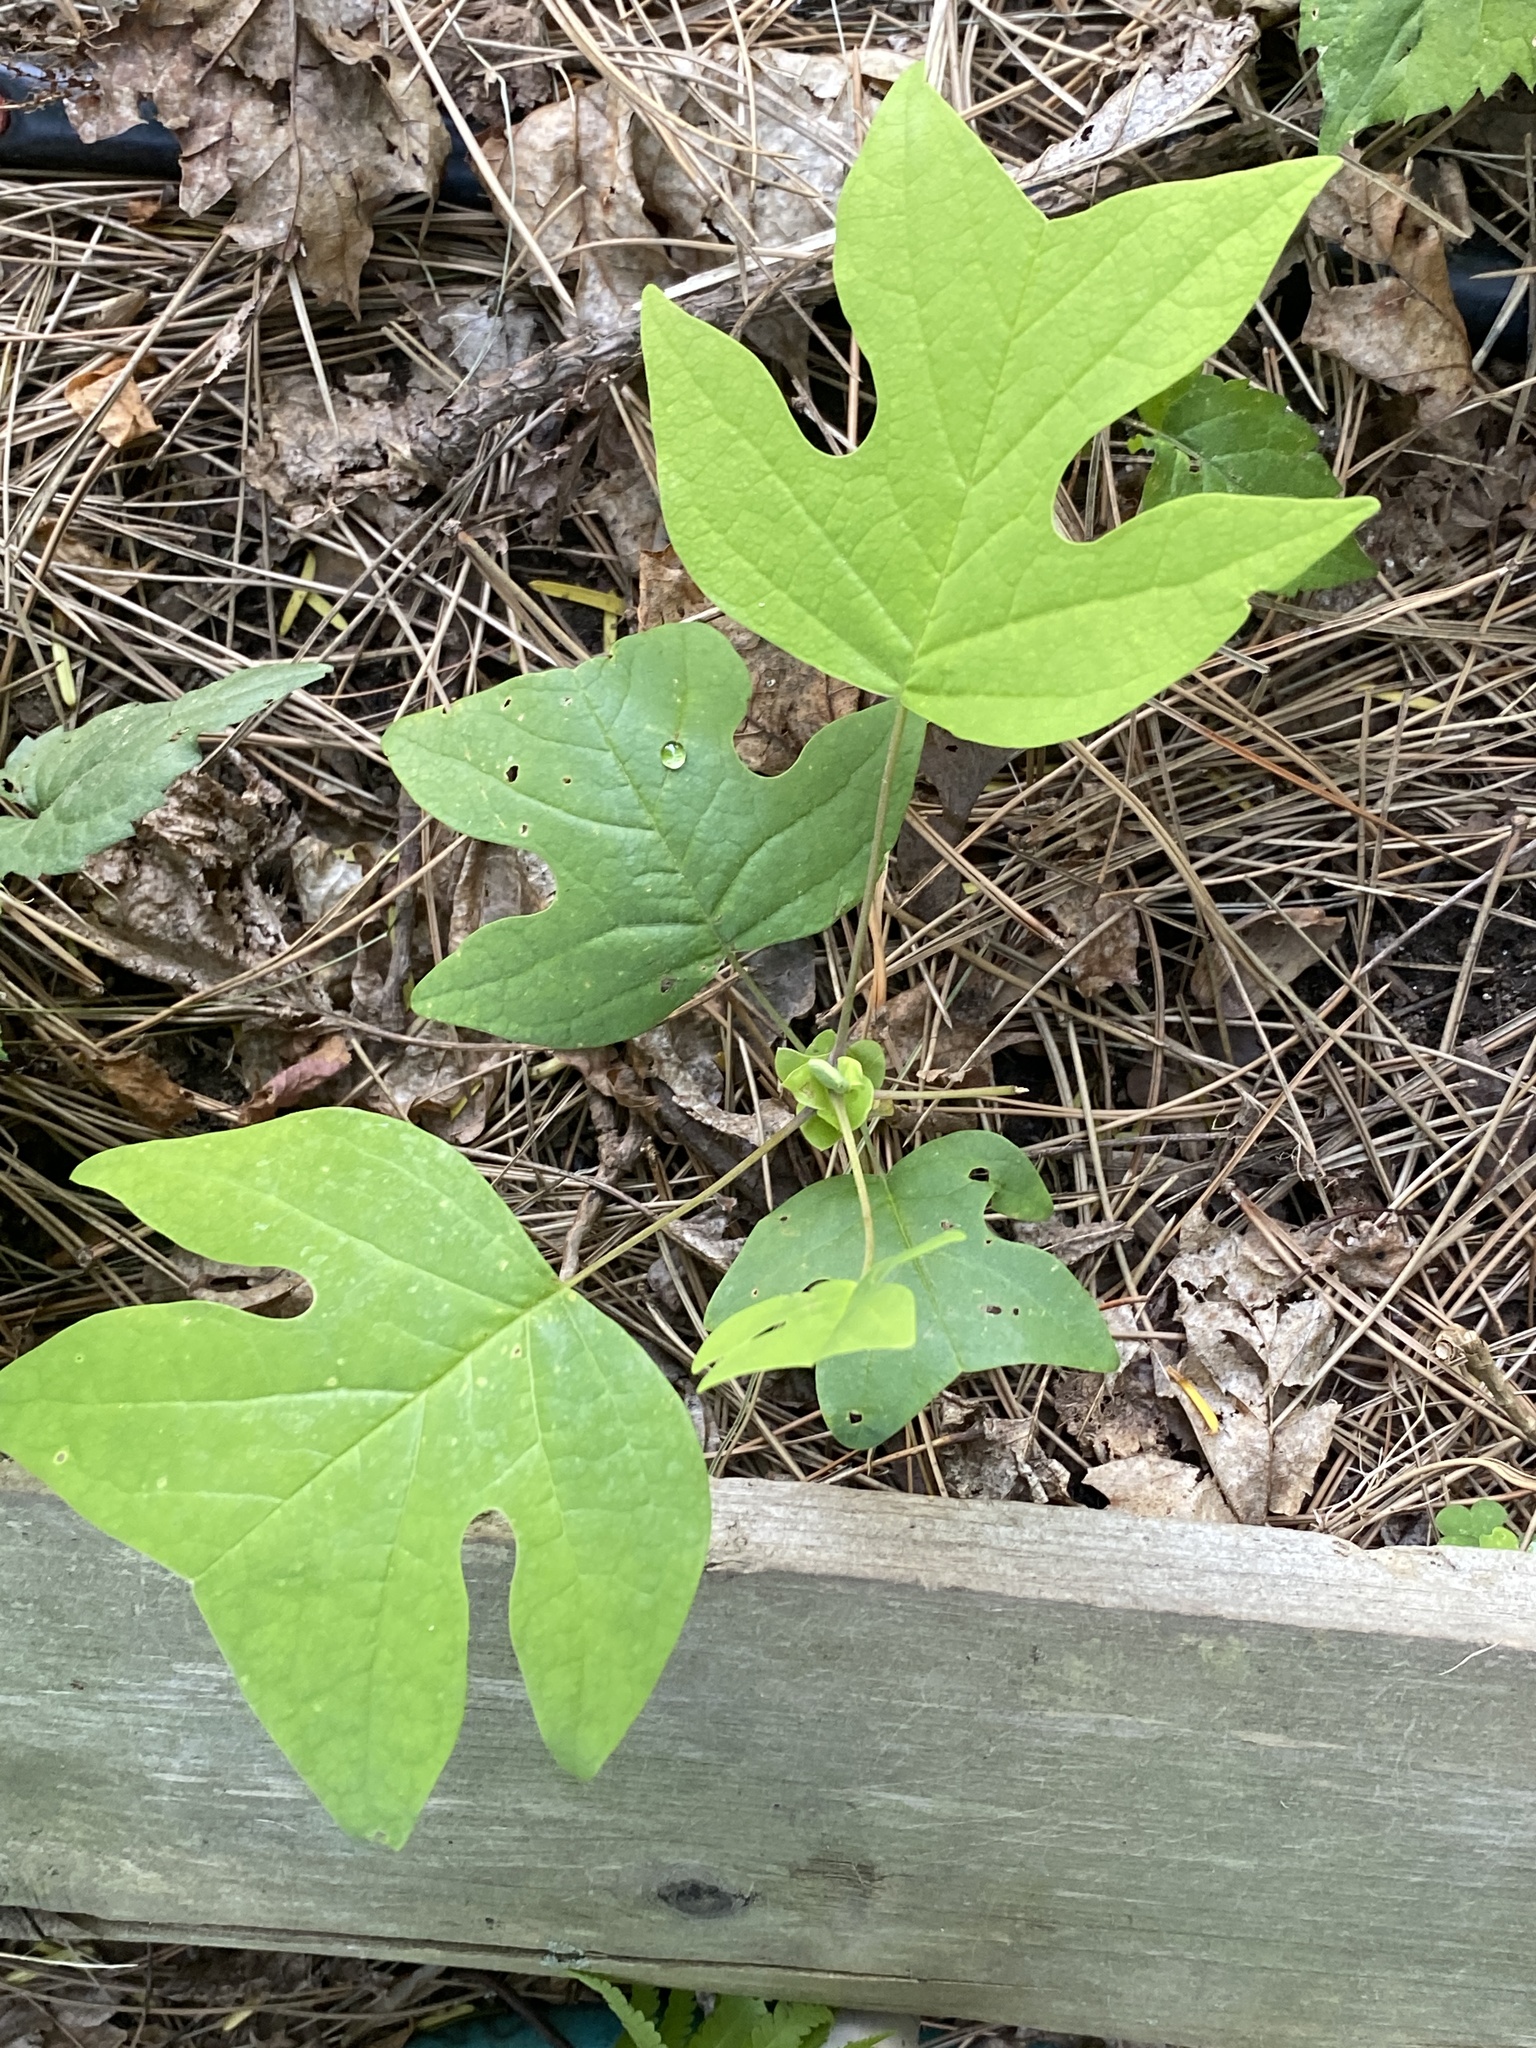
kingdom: Plantae
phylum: Tracheophyta
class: Magnoliopsida
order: Magnoliales
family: Magnoliaceae
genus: Liriodendron
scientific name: Liriodendron tulipifera
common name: Tulip tree
